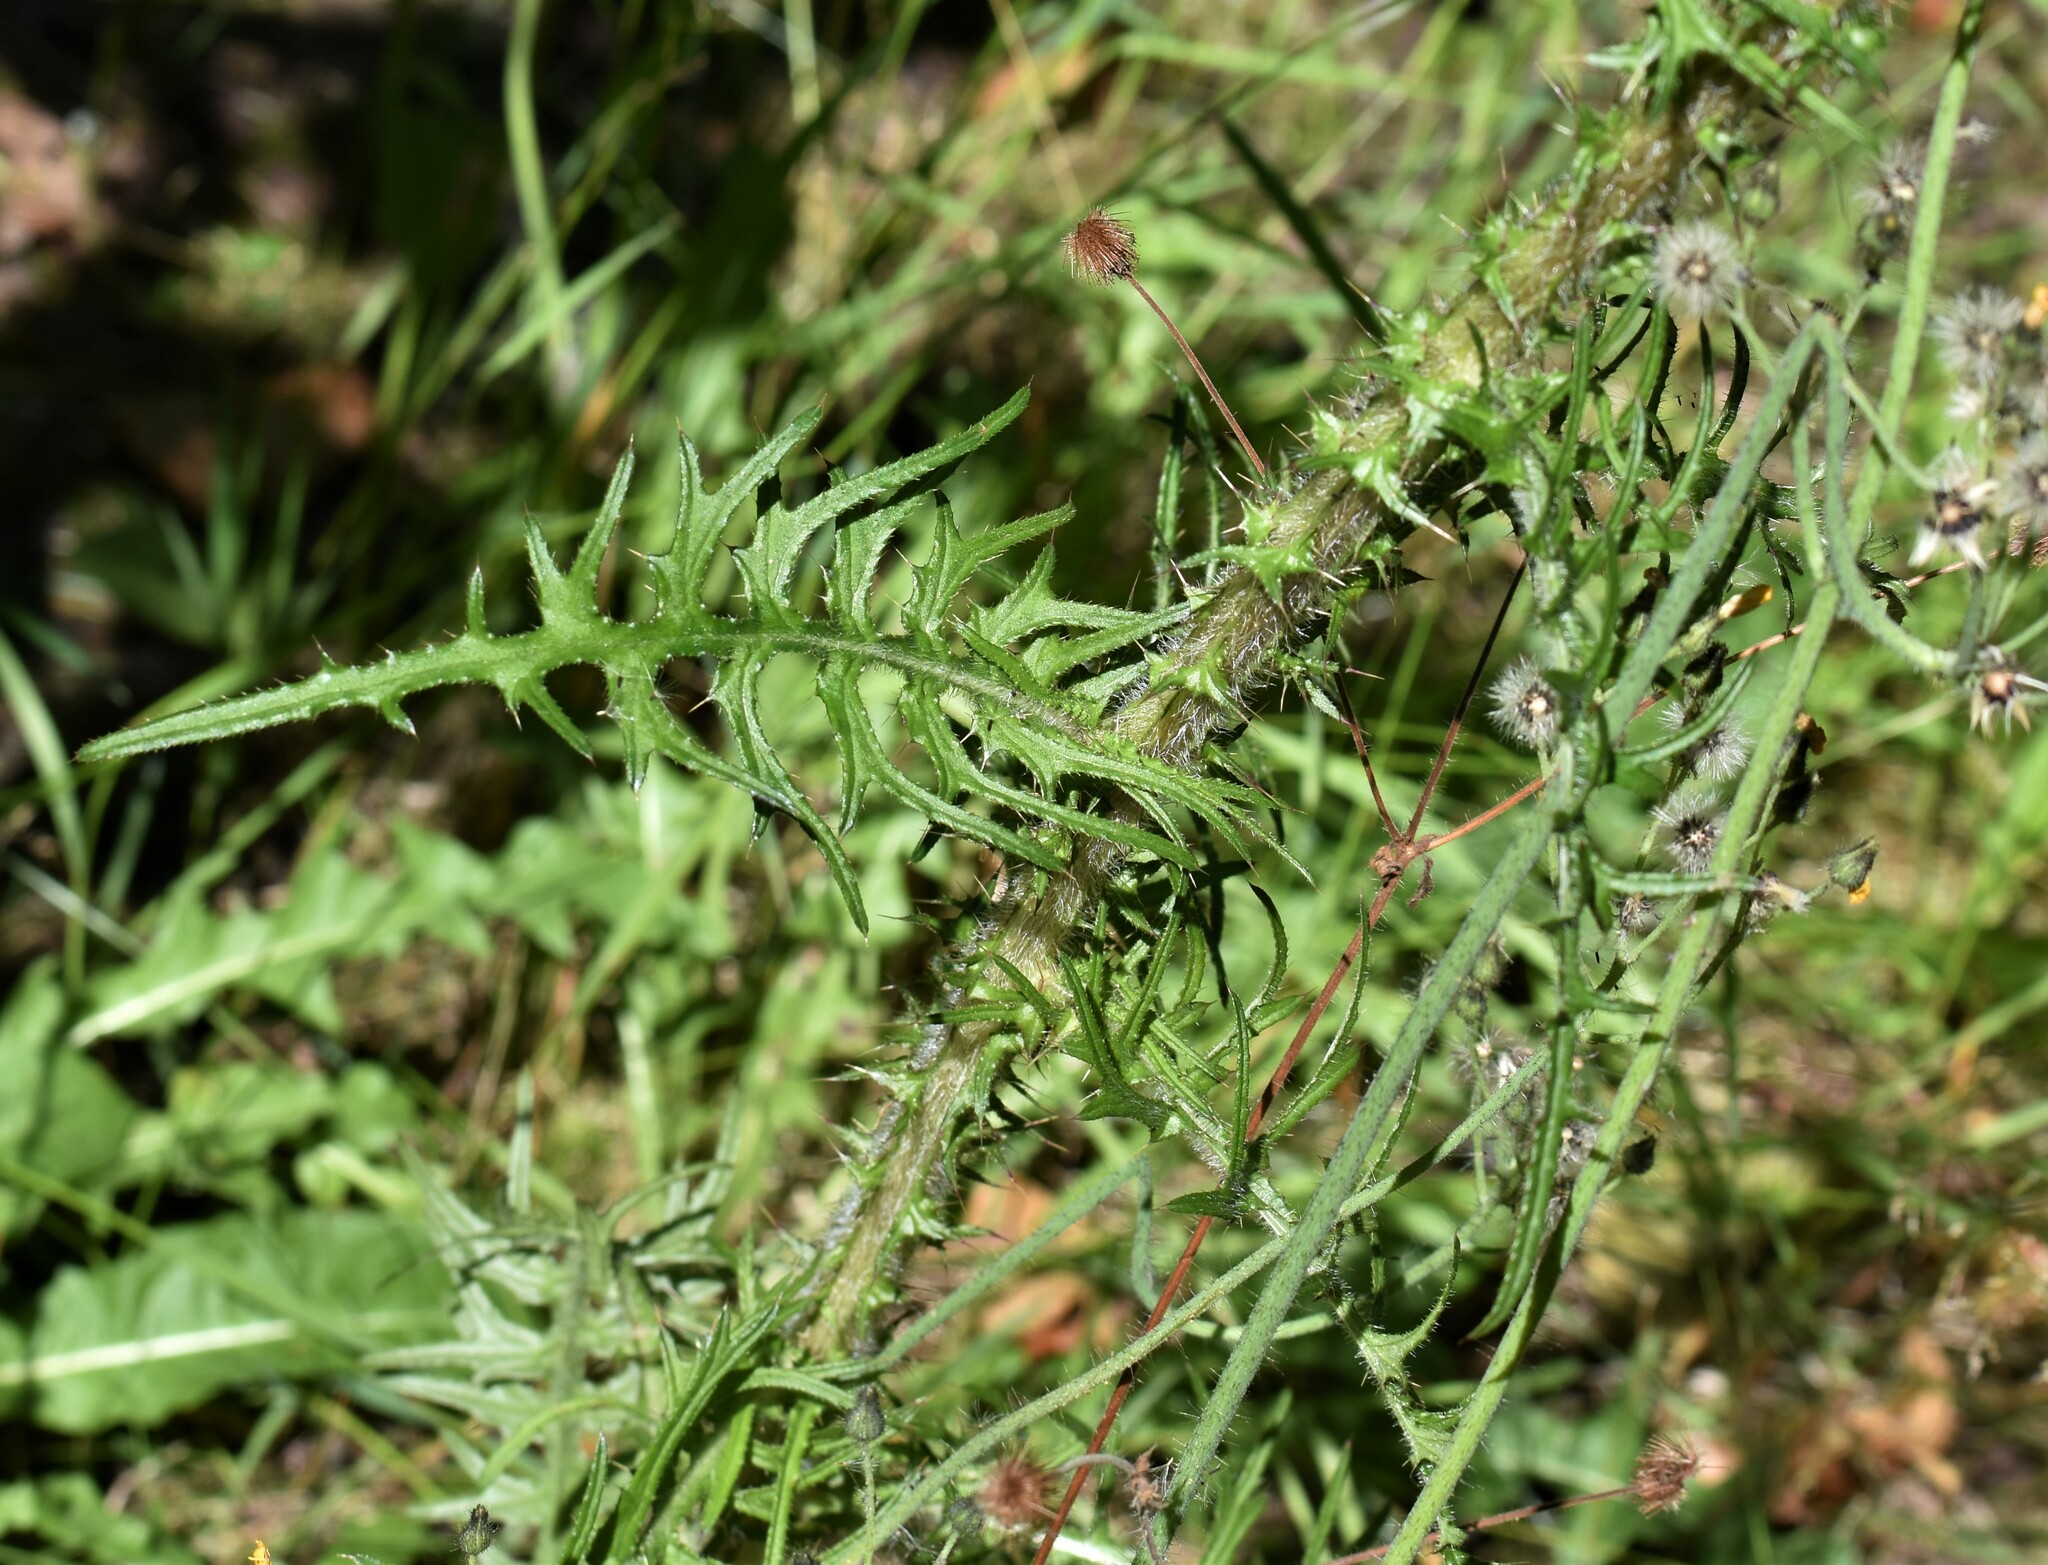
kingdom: Plantae
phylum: Tracheophyta
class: Magnoliopsida
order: Asterales
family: Asteraceae
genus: Cirsium
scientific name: Cirsium palustre
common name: Marsh thistle
